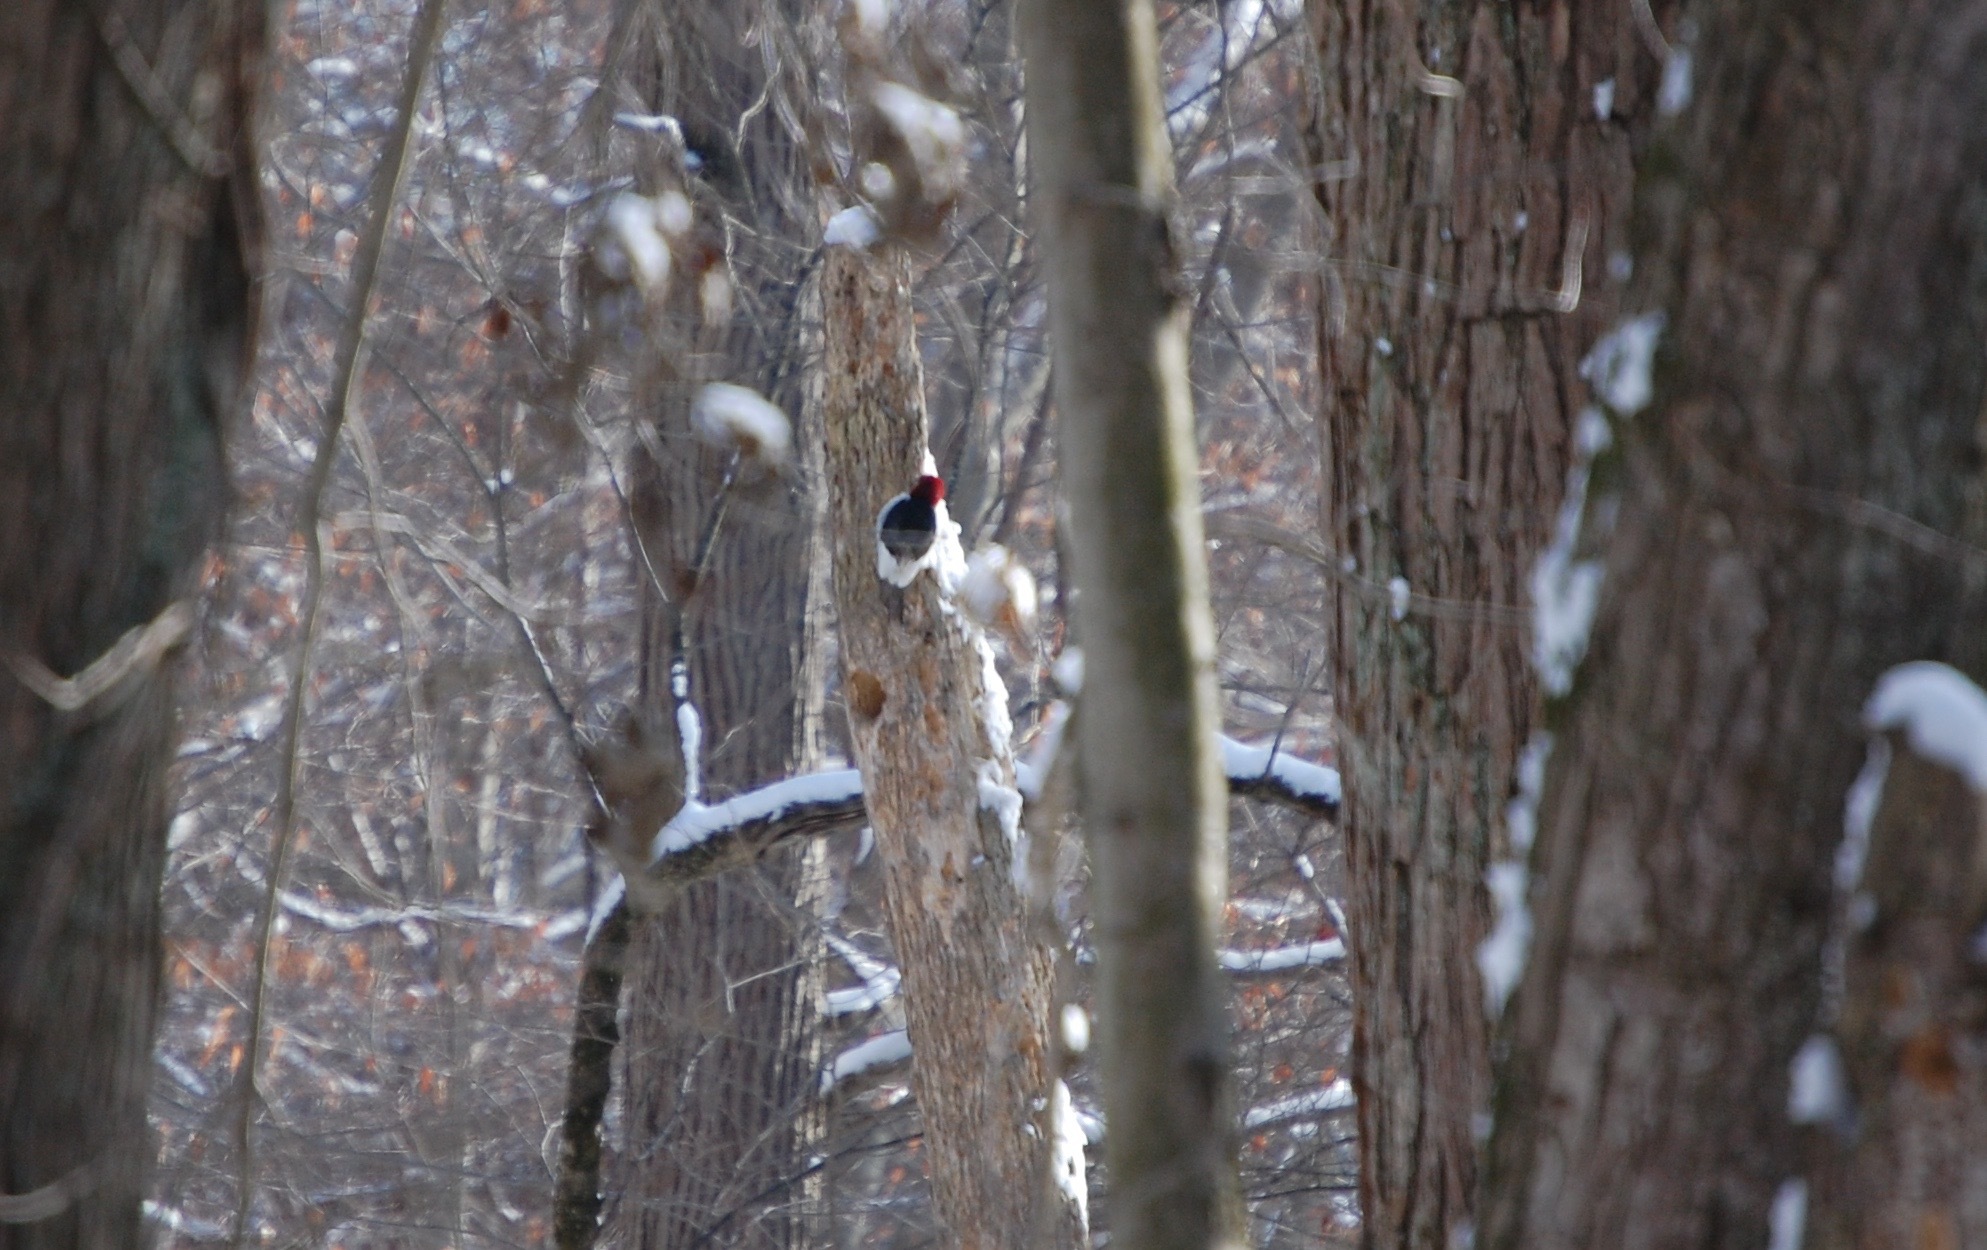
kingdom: Animalia
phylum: Chordata
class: Aves
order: Piciformes
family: Picidae
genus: Melanerpes
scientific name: Melanerpes erythrocephalus
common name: Red-headed woodpecker
